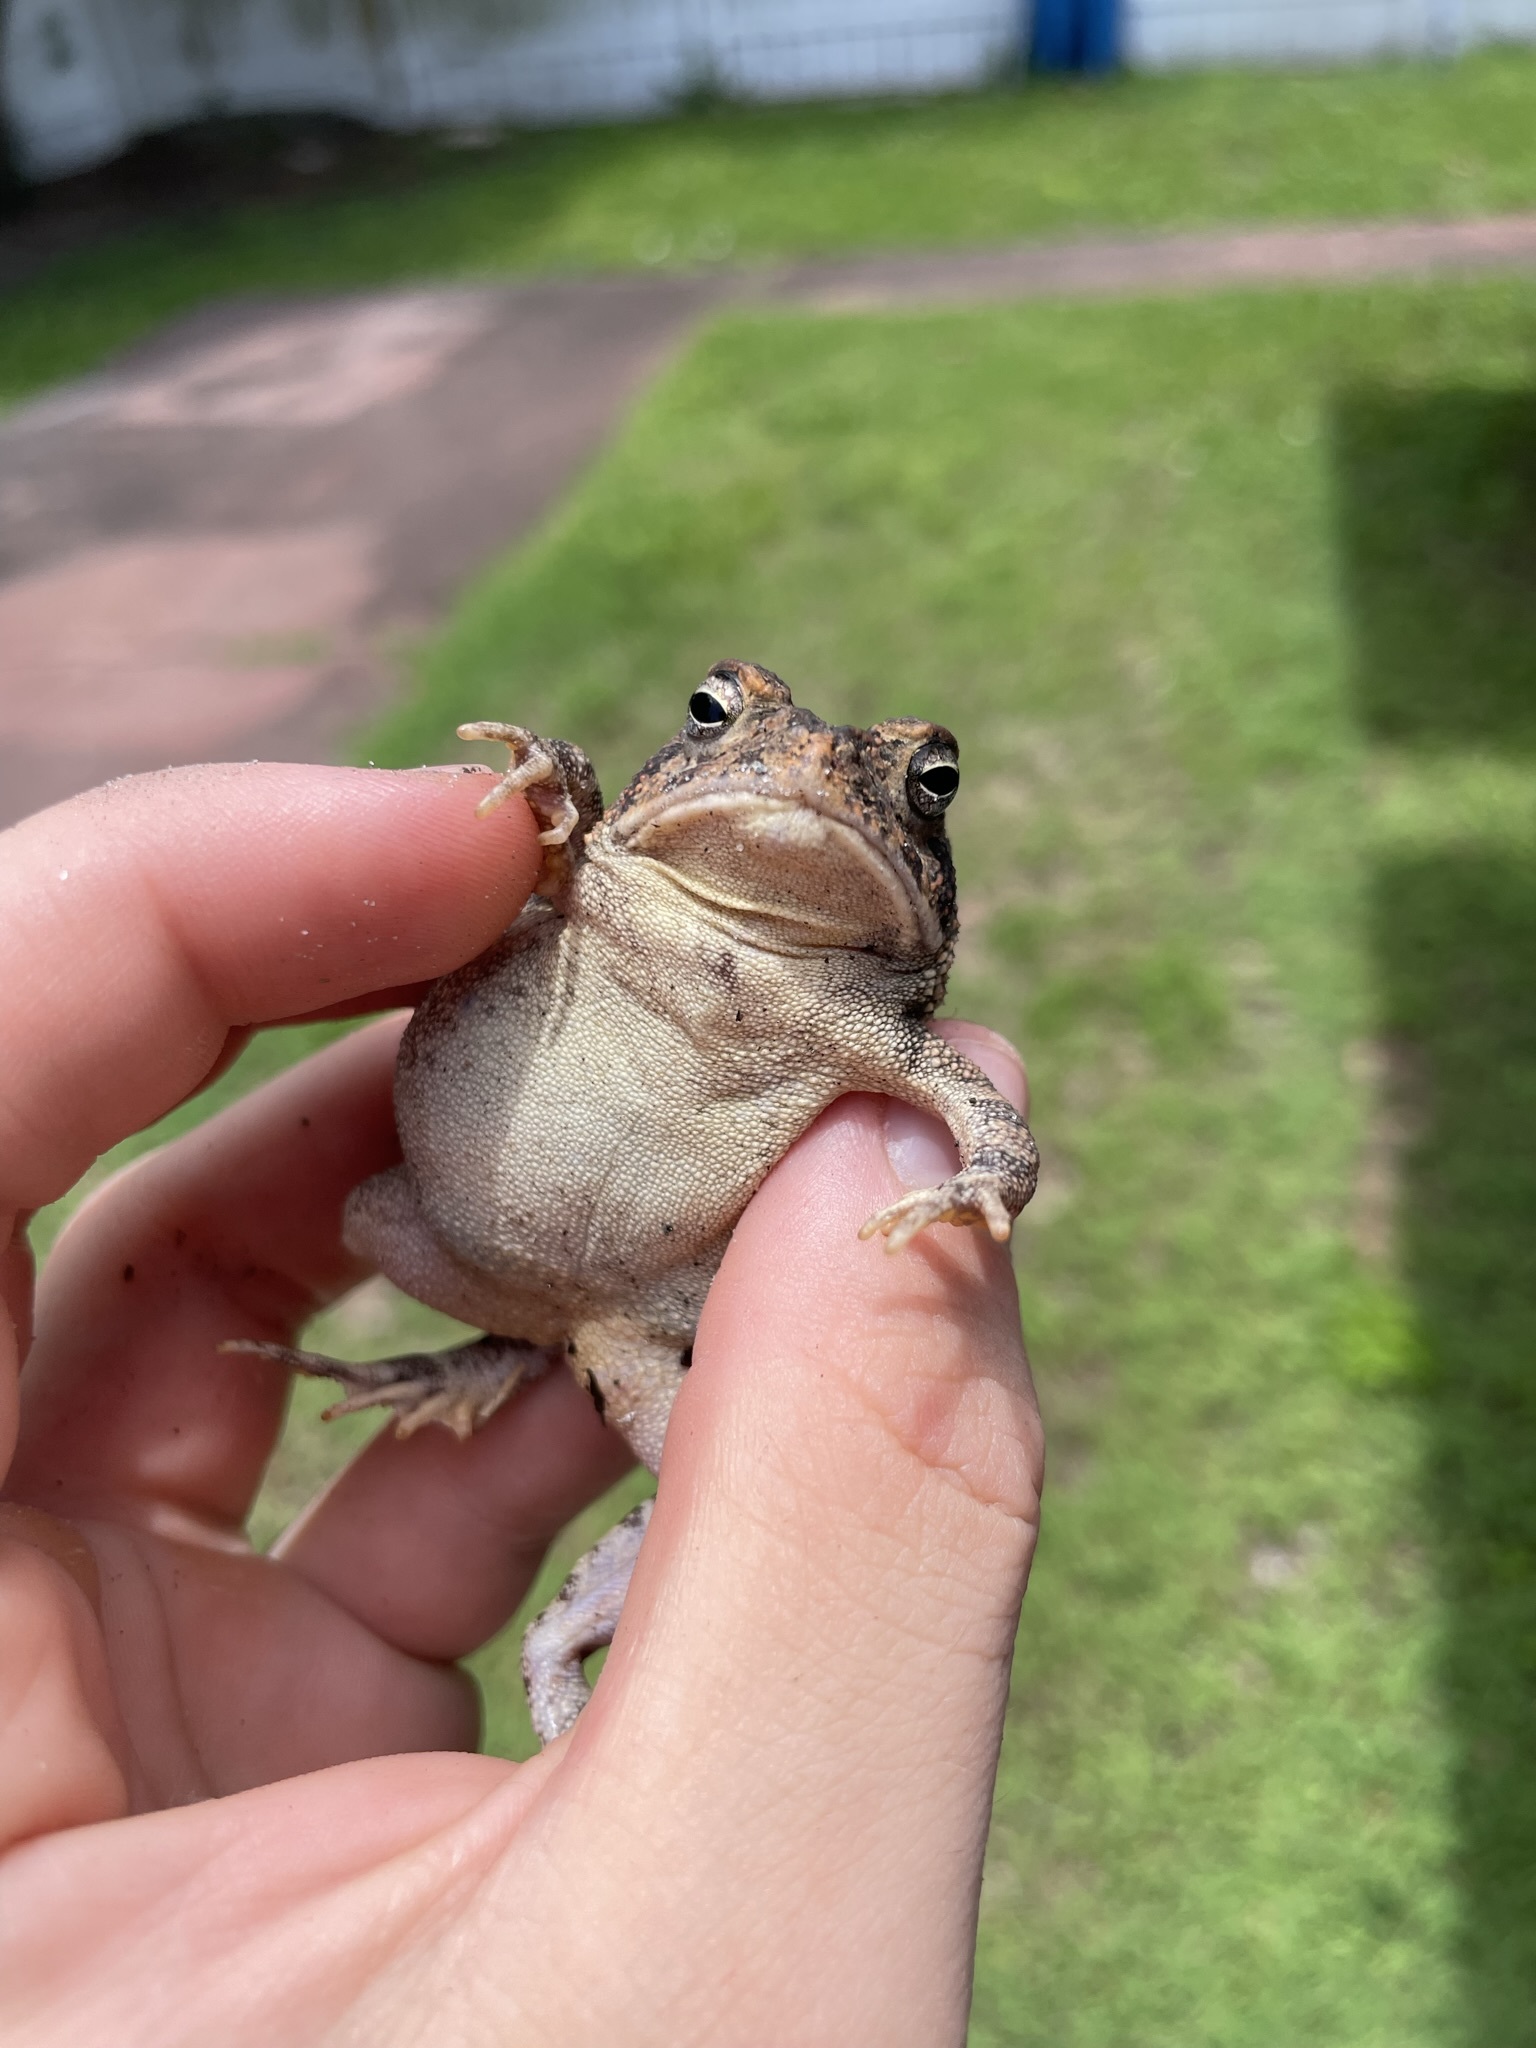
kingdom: Animalia
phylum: Chordata
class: Amphibia
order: Anura
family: Bufonidae
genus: Anaxyrus
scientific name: Anaxyrus terrestris
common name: Southern toad
